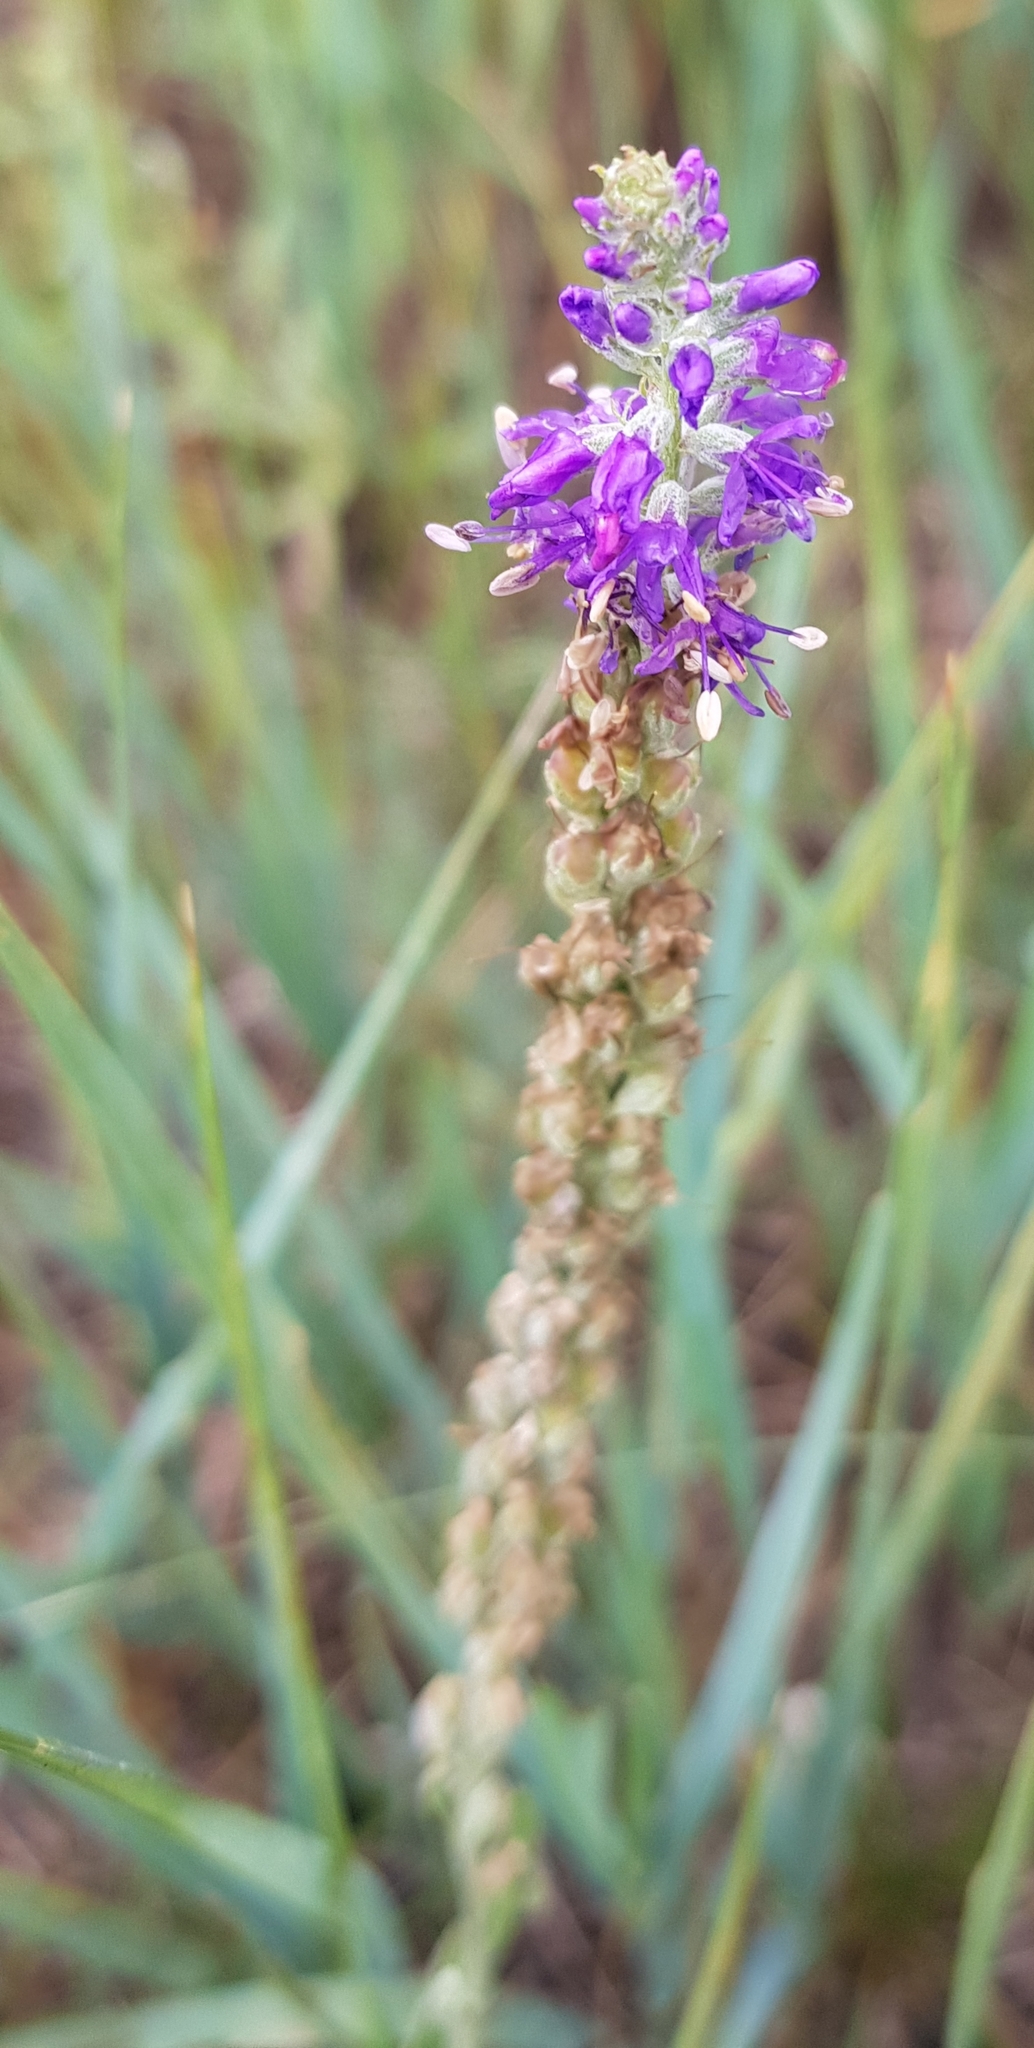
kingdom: Plantae
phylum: Tracheophyta
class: Magnoliopsida
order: Lamiales
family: Plantaginaceae
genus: Veronica
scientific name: Veronica incana
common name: Silver speedwell
